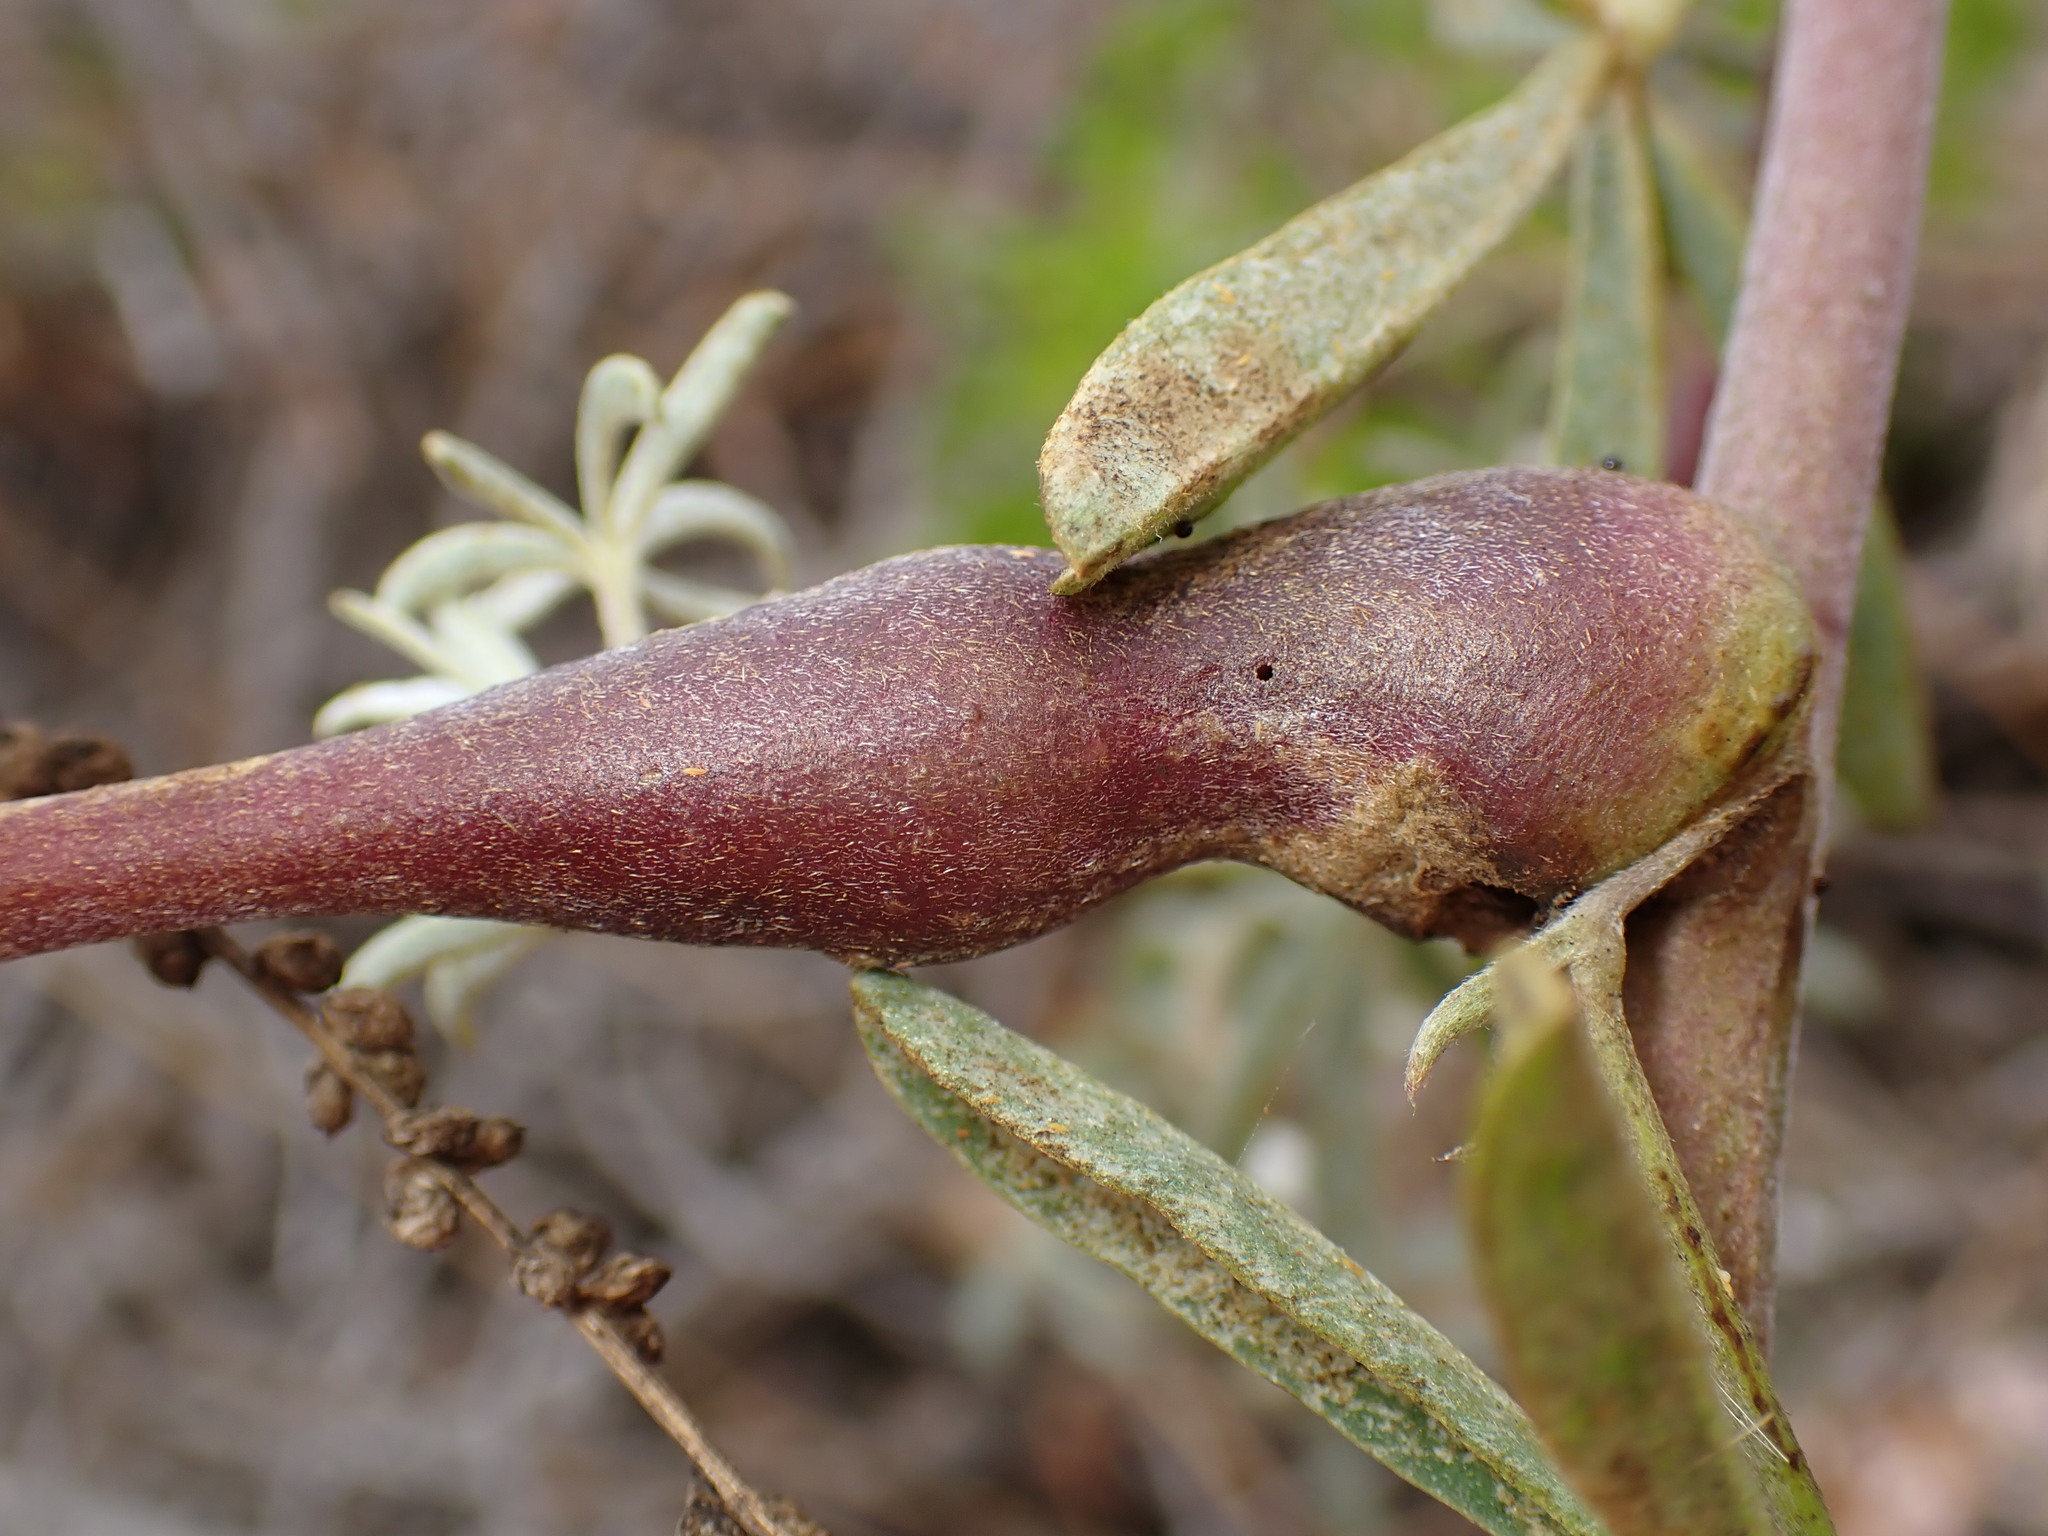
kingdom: Animalia
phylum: Arthropoda
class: Insecta
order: Diptera
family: Cecidomyiidae
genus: Neolasioptera
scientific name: Neolasioptera lupini
